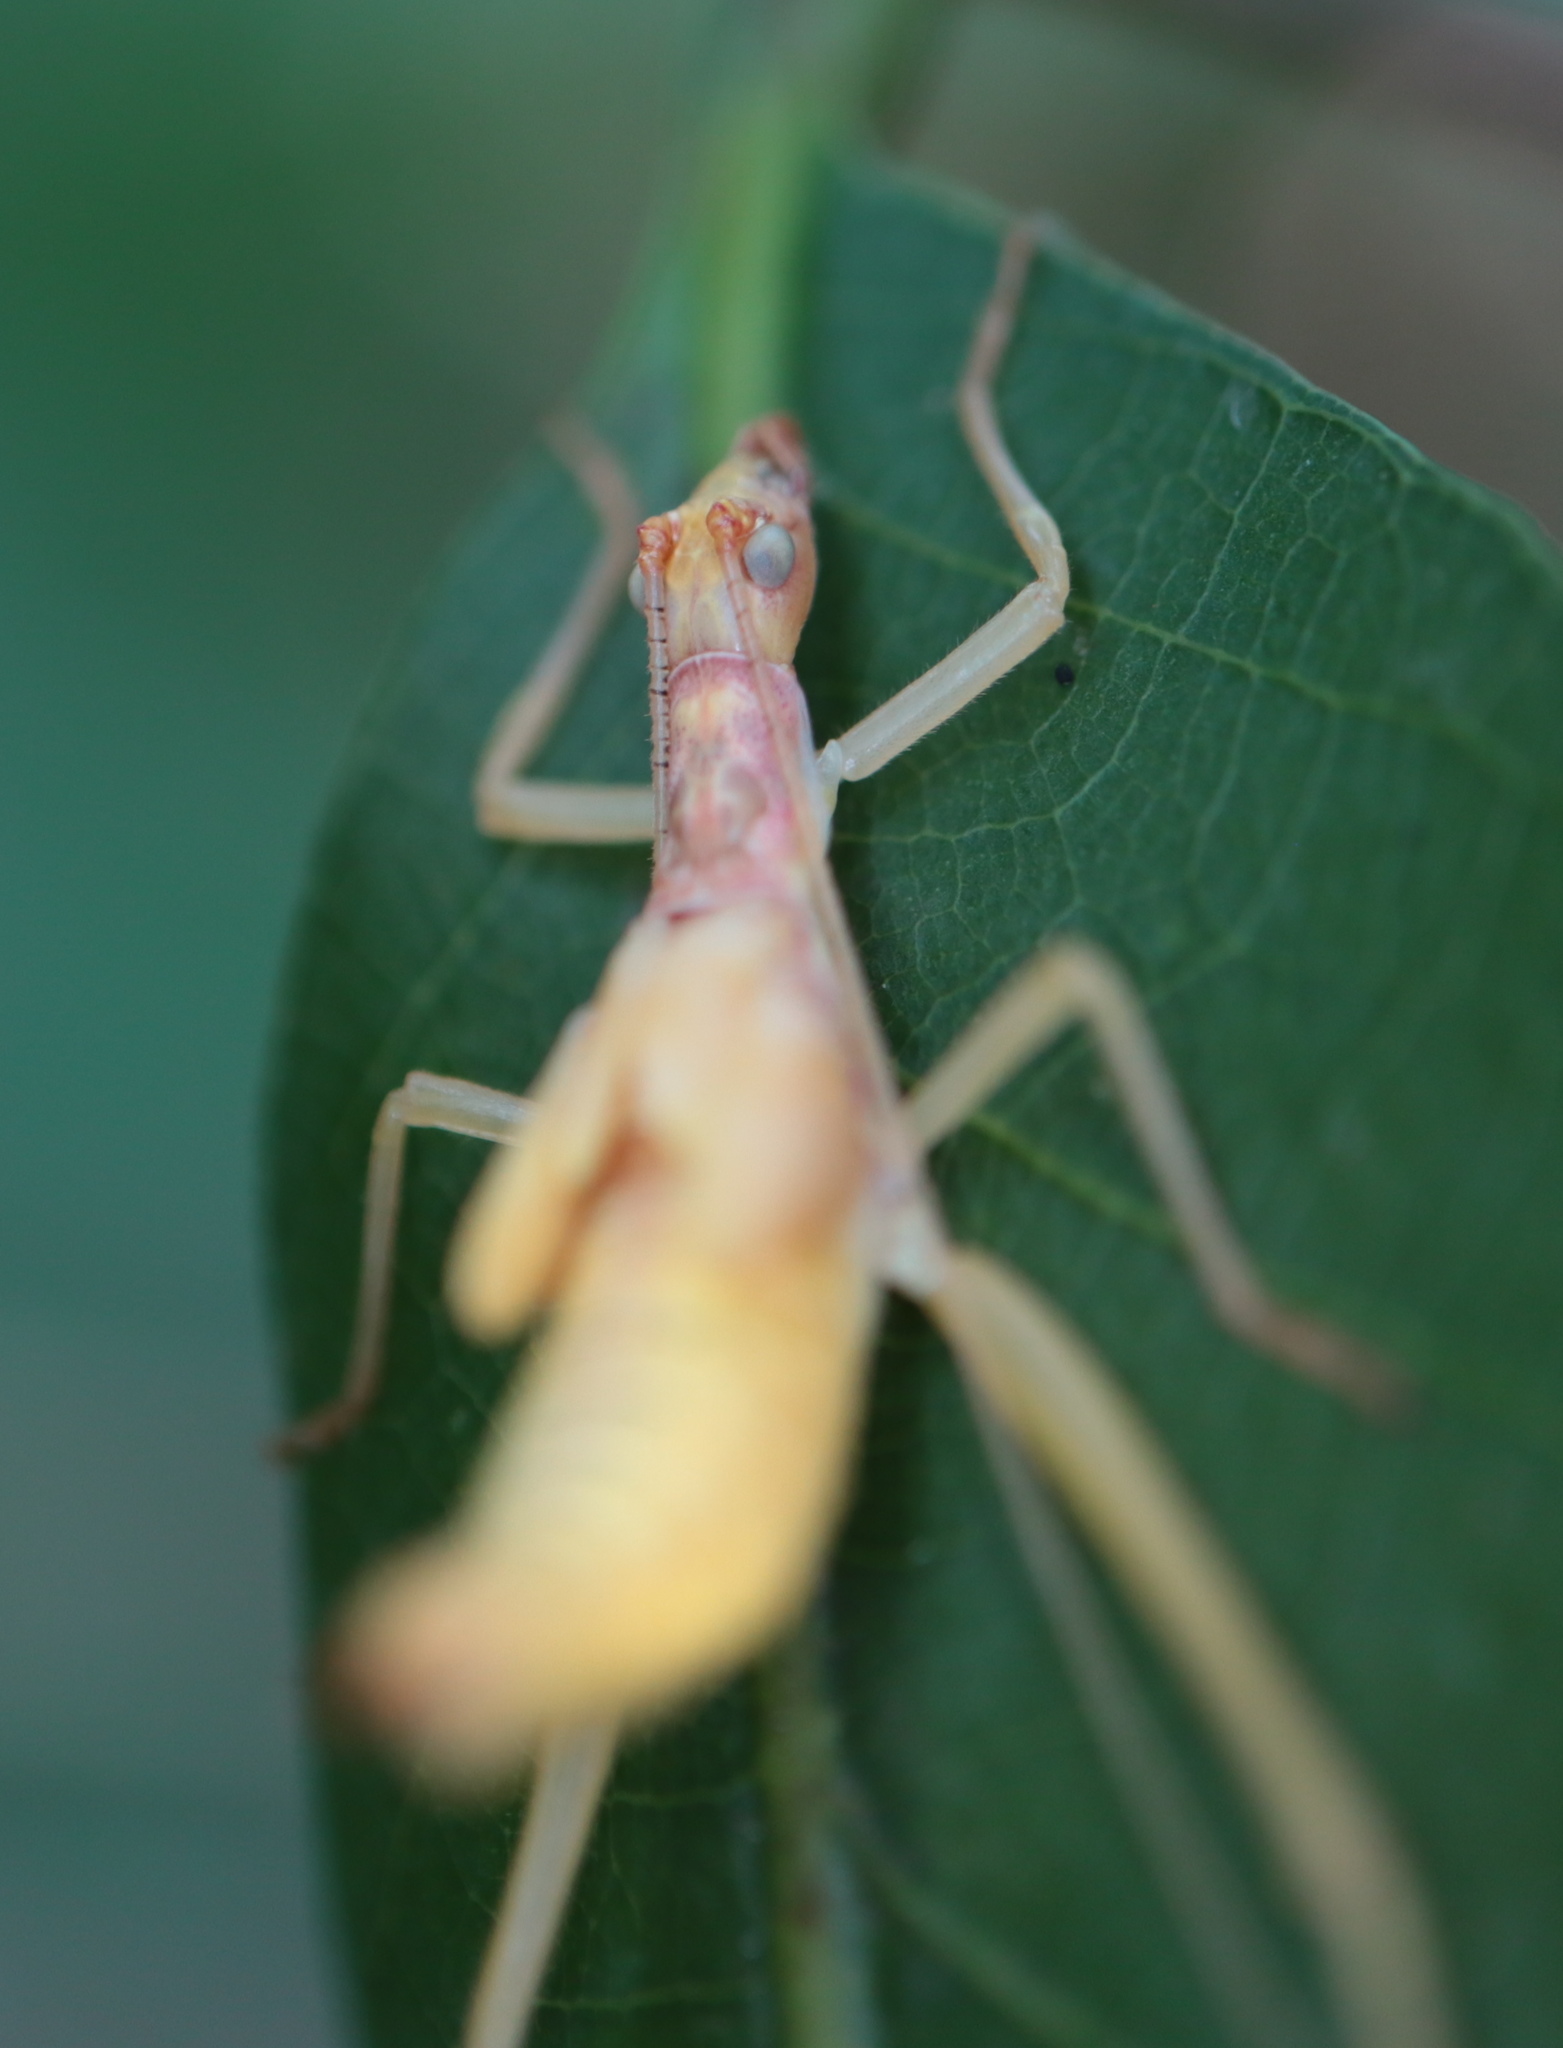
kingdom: Animalia
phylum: Arthropoda
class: Insecta
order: Orthoptera
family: Gryllidae
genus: Neoxabea
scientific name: Neoxabea bipunctata
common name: Two-spotted tree cricket
